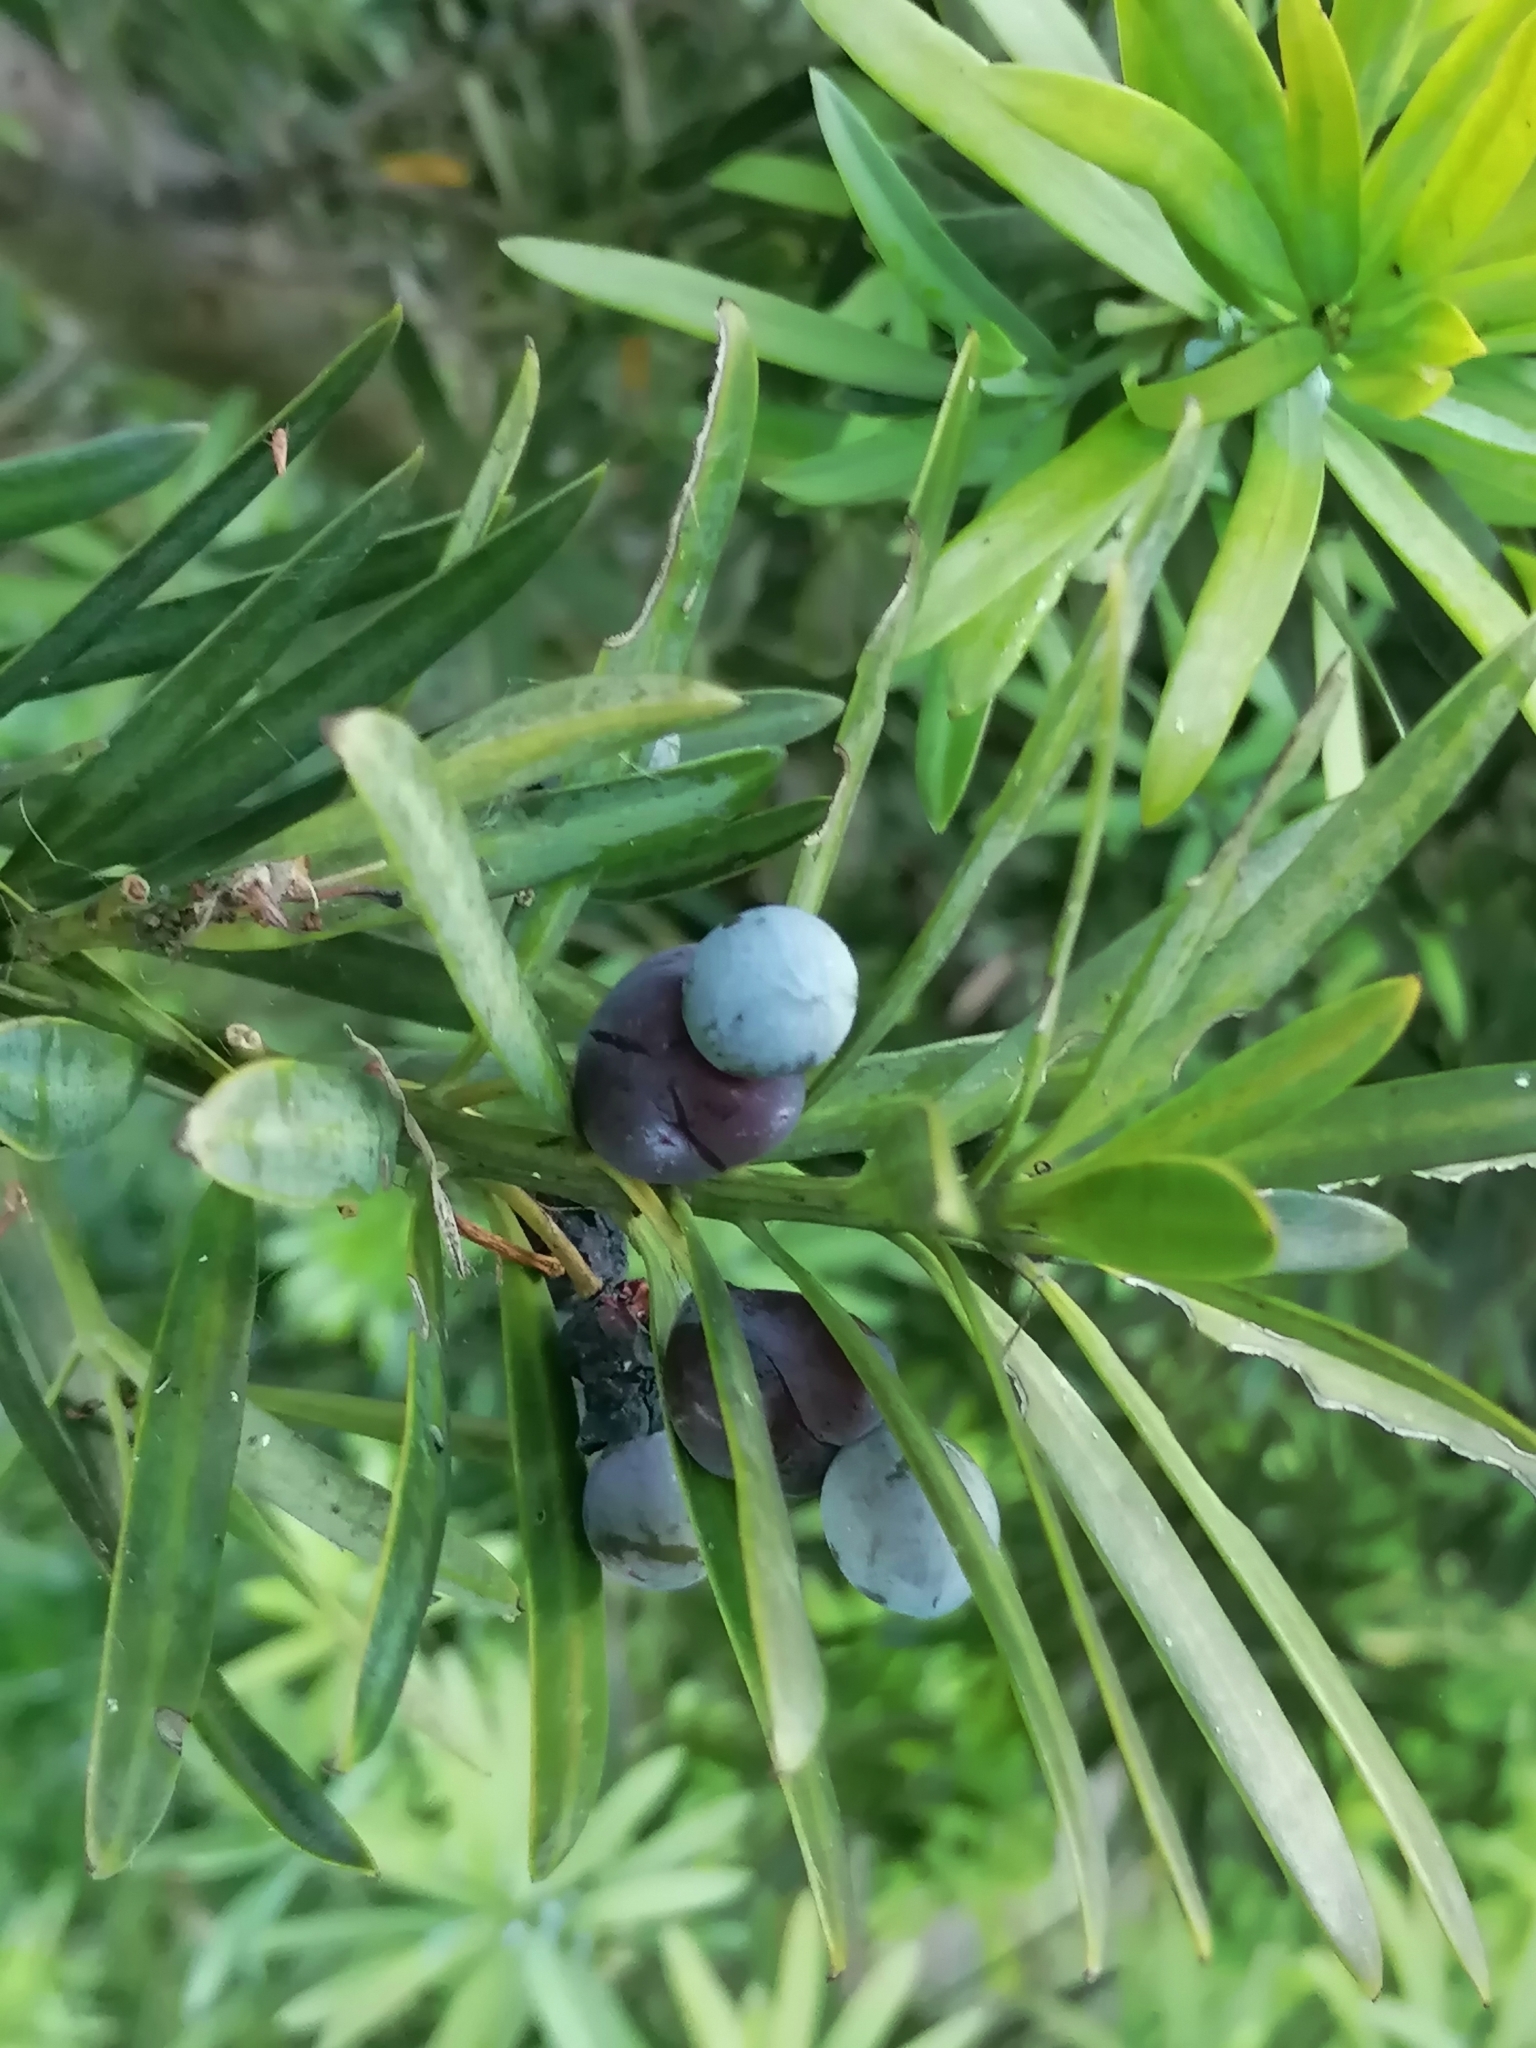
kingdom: Plantae
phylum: Tracheophyta
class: Pinopsida
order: Pinales
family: Podocarpaceae
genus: Podocarpus
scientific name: Podocarpus latifolius
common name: True yellowwood
